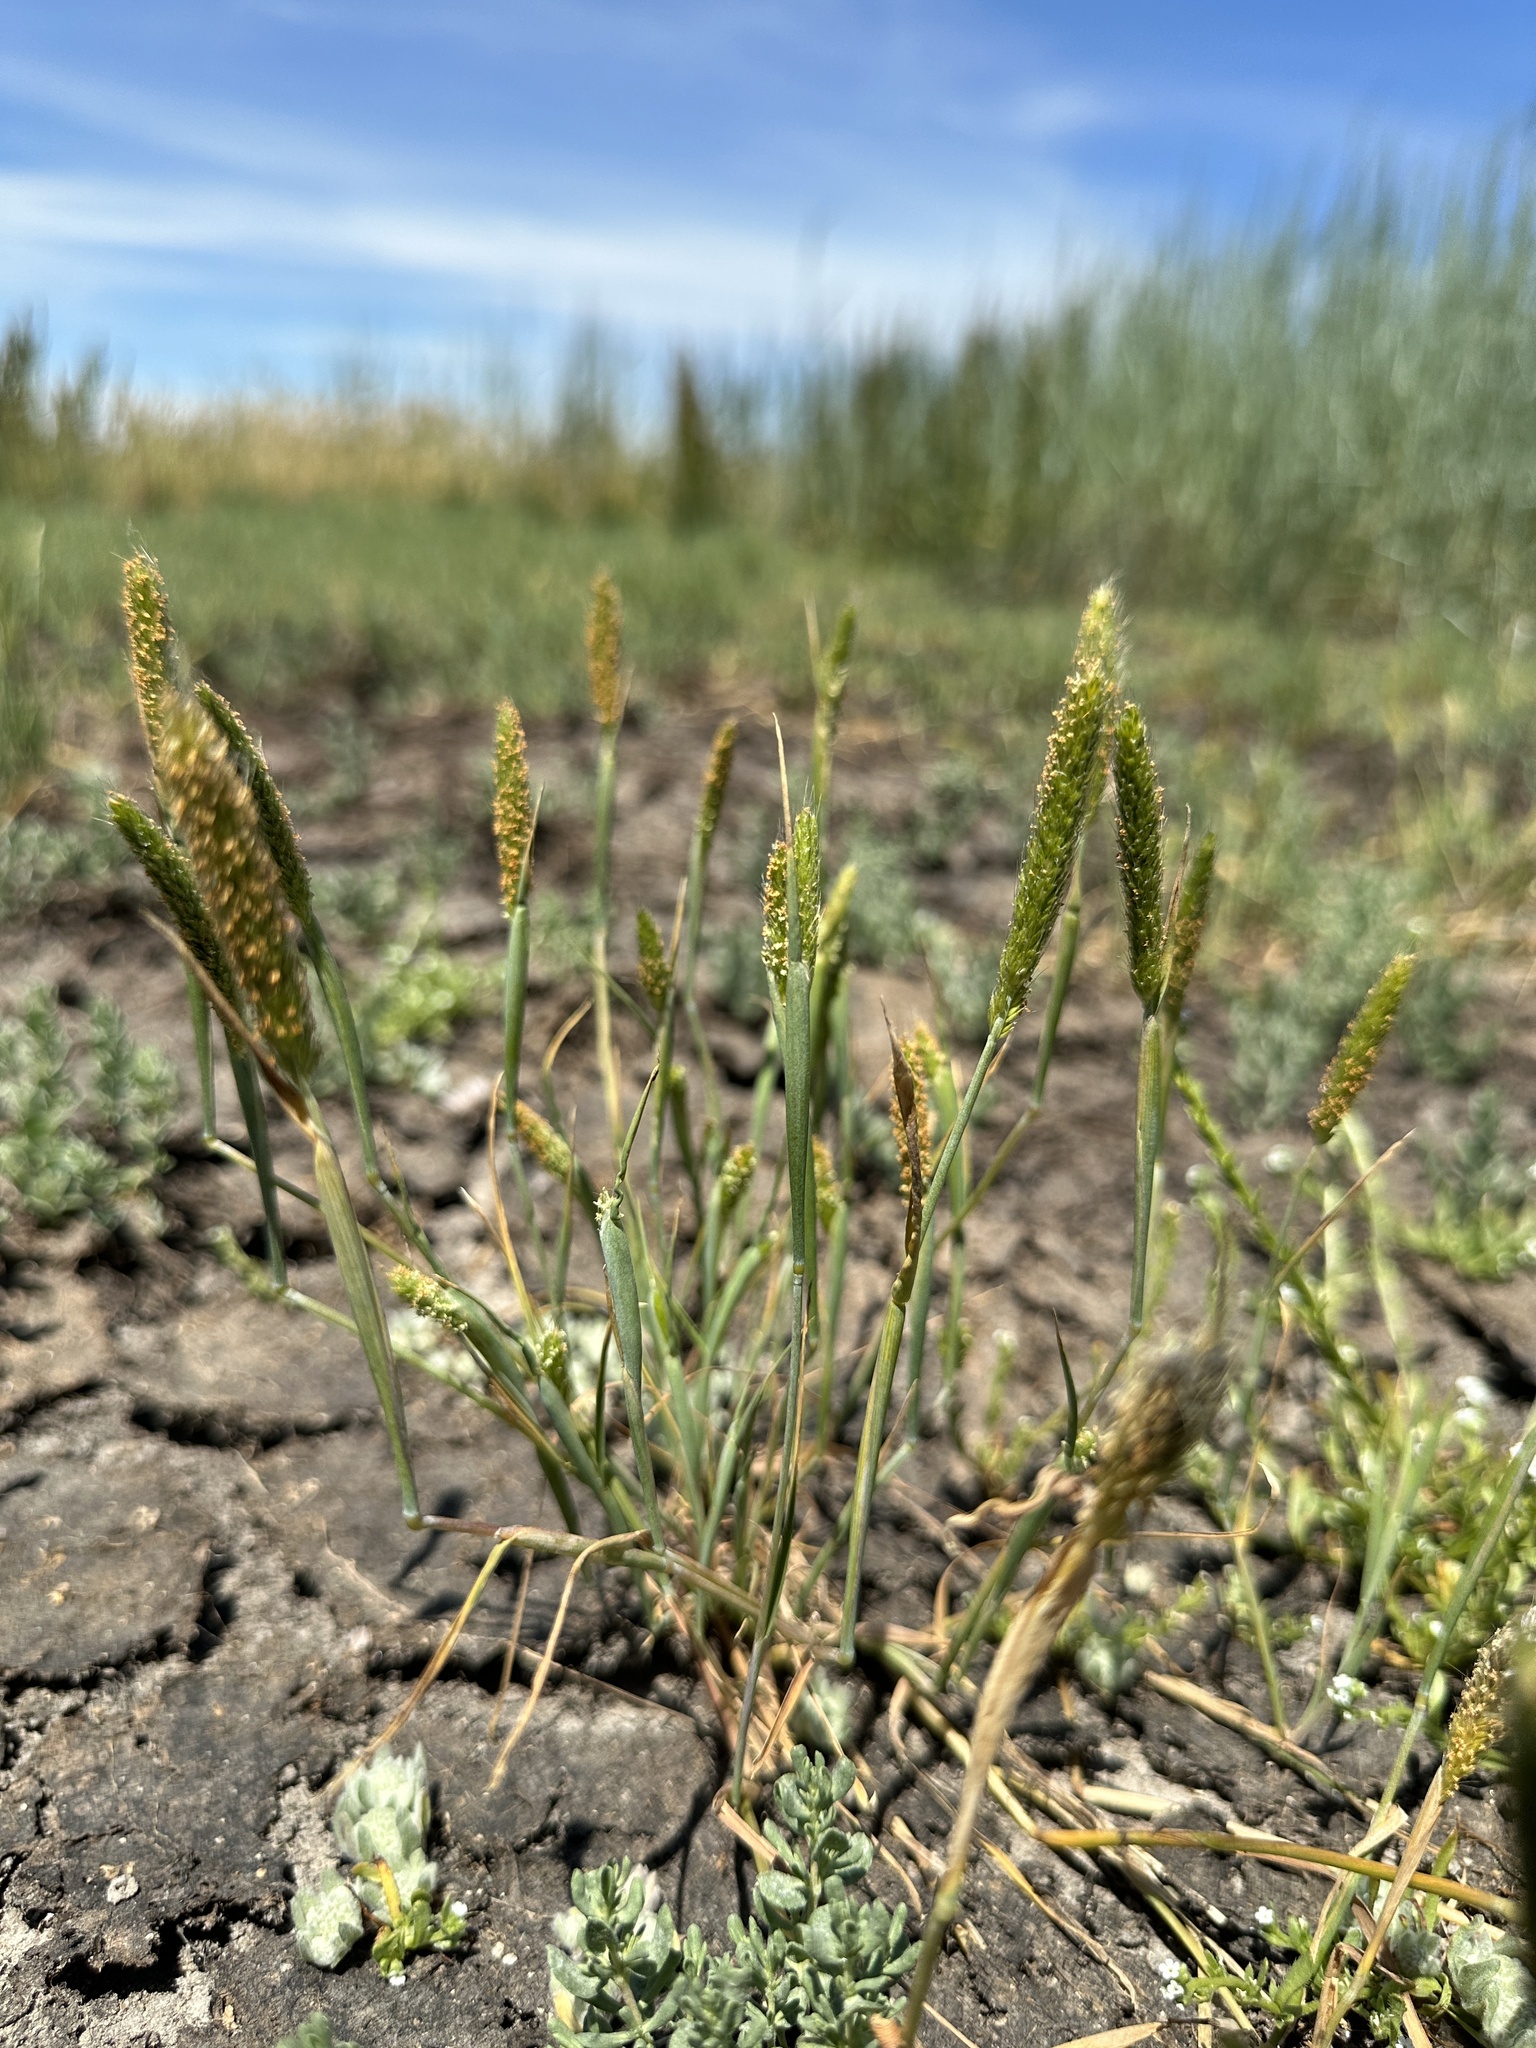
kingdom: Plantae
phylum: Tracheophyta
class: Liliopsida
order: Poales
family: Poaceae
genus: Alopecurus
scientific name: Alopecurus saccatus
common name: Pacific foxtail
